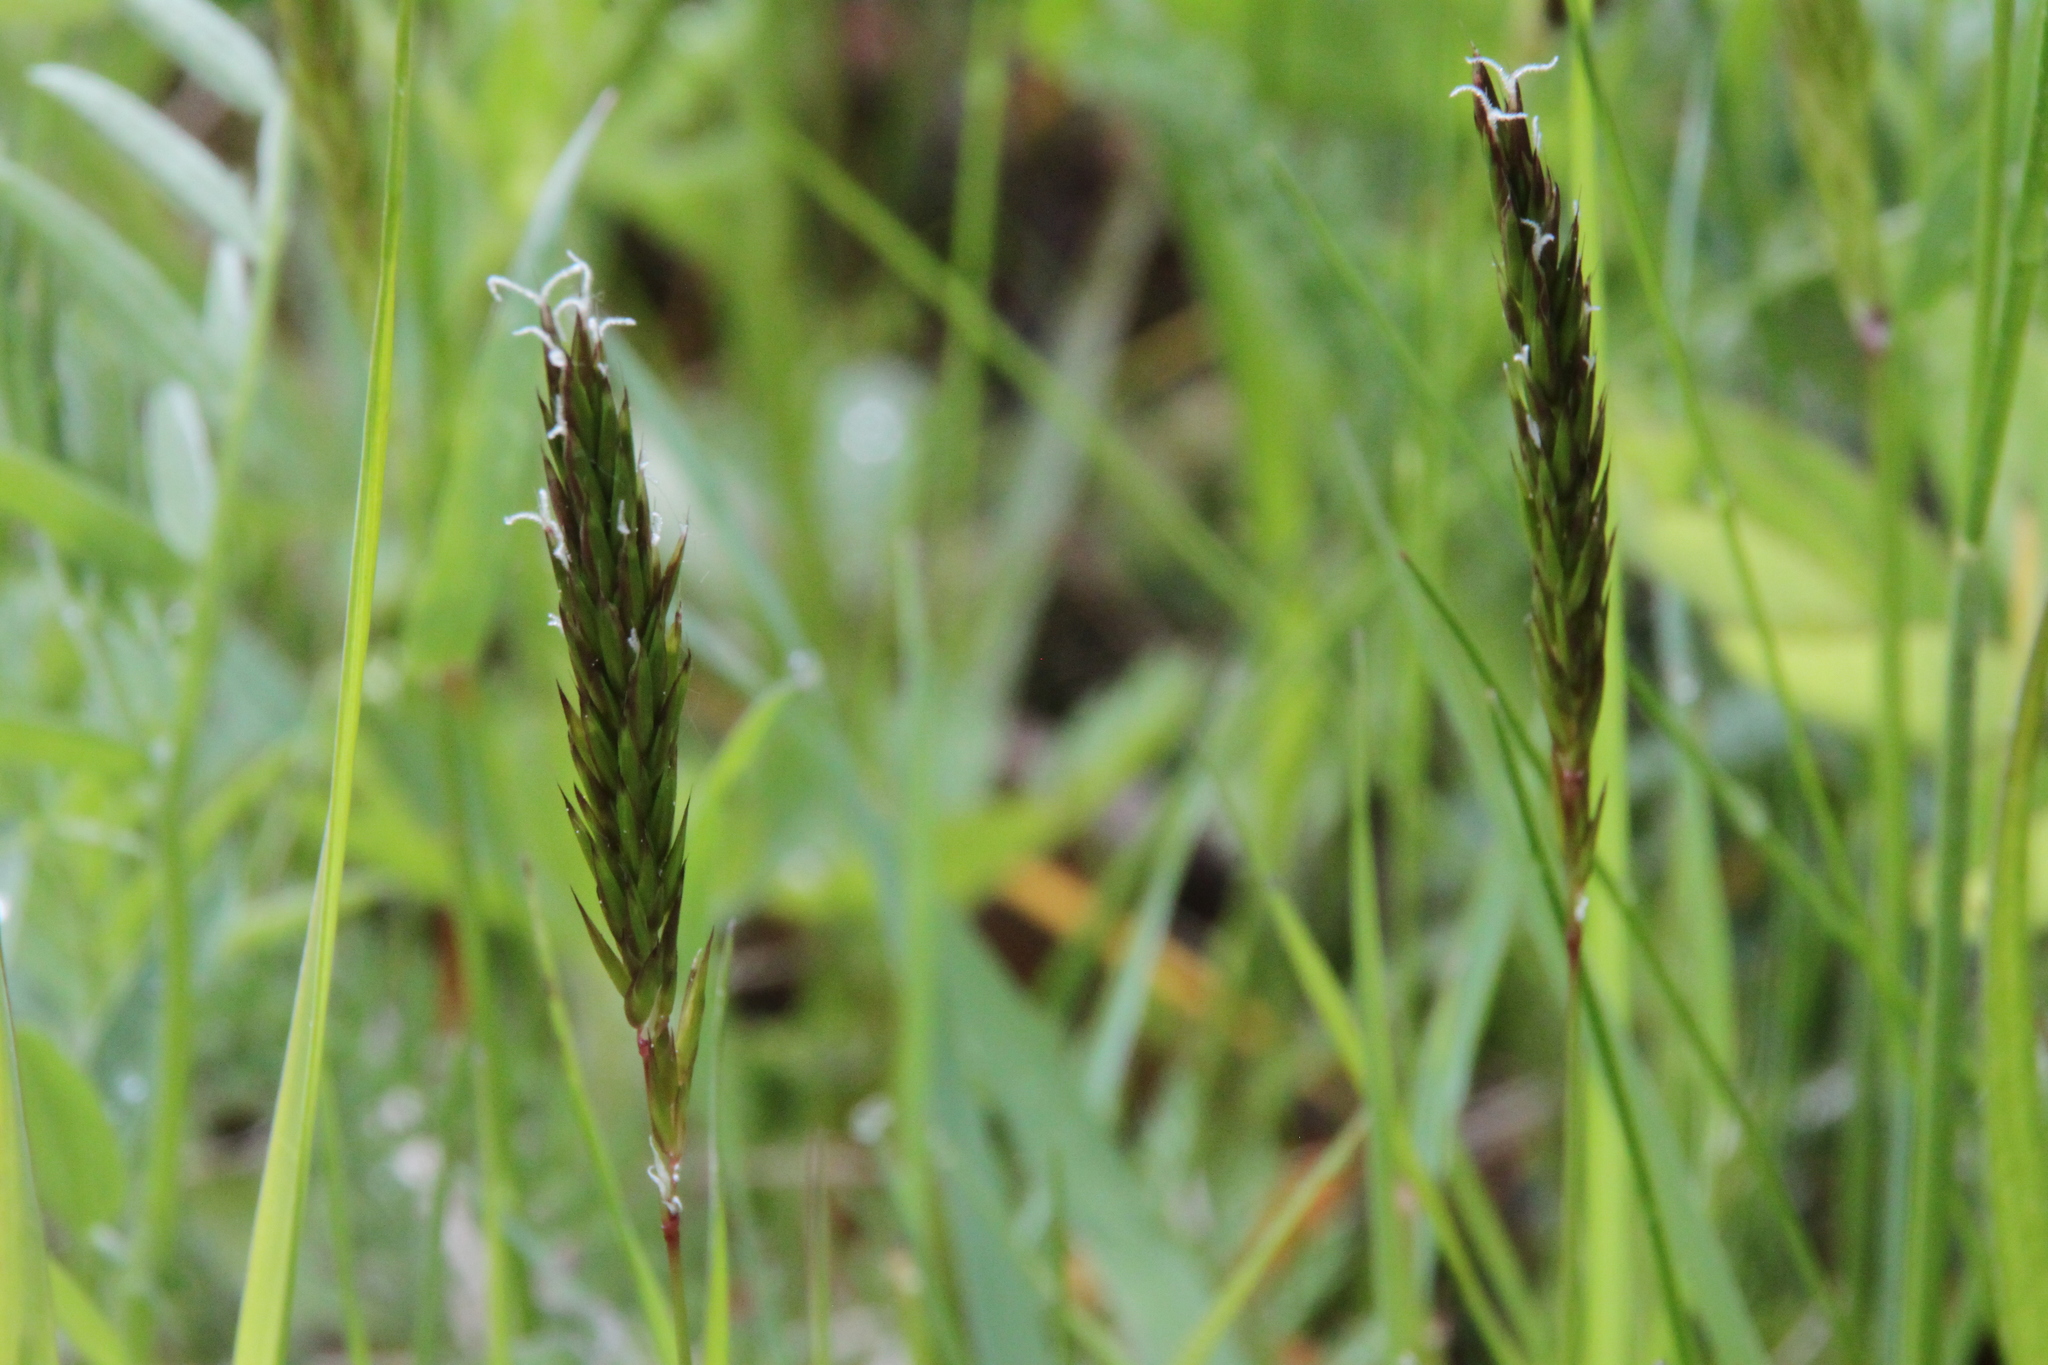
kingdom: Plantae
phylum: Tracheophyta
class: Liliopsida
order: Poales
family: Poaceae
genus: Anthoxanthum
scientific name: Anthoxanthum odoratum
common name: Sweet vernalgrass
